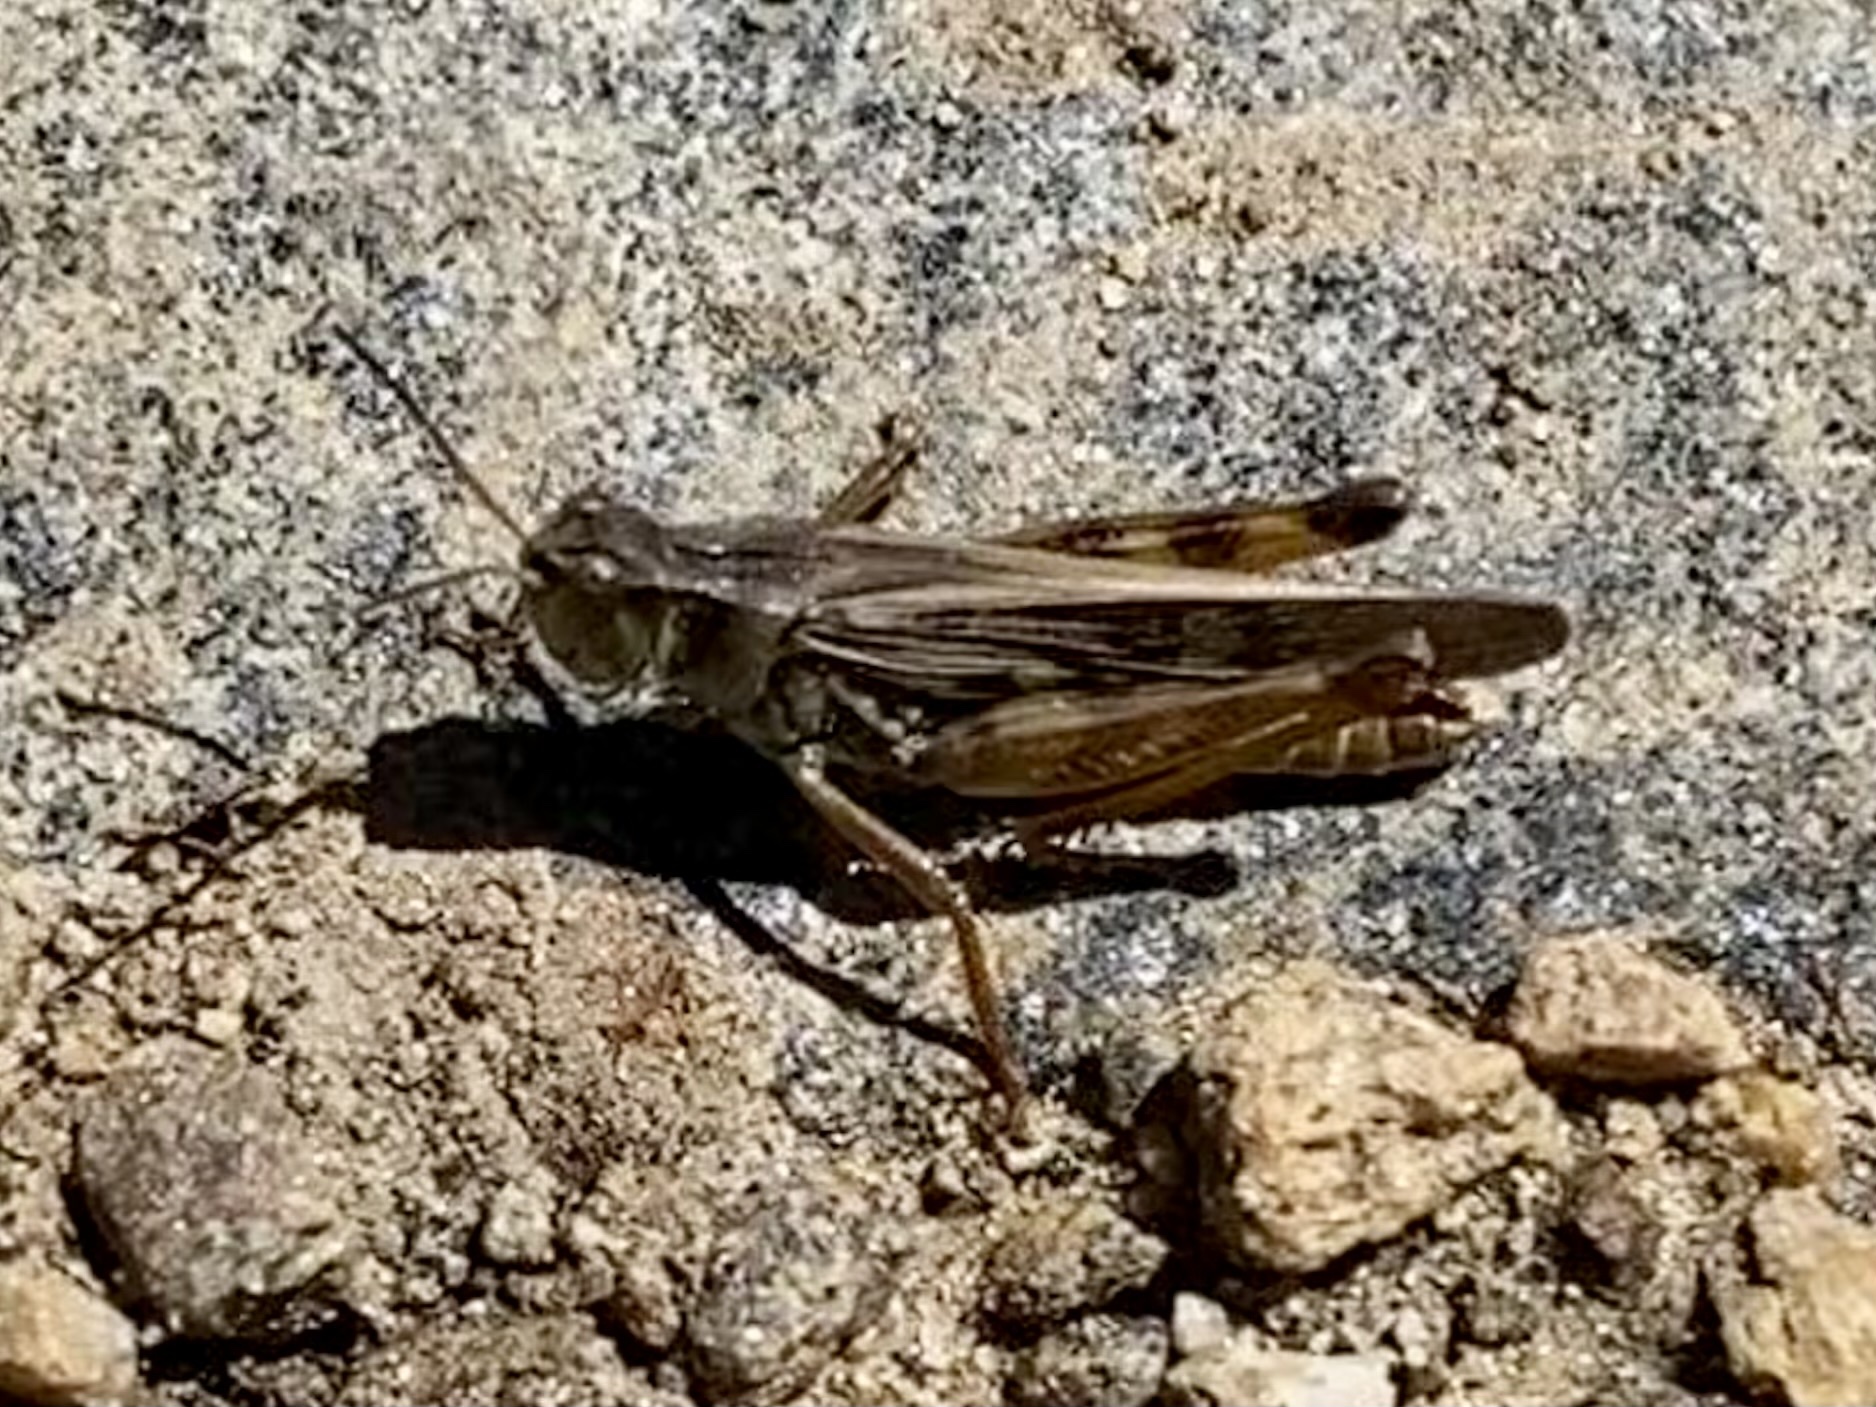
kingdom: Animalia
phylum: Arthropoda
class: Insecta
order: Orthoptera
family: Acrididae
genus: Camnula
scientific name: Camnula pellucida
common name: Clear-winged grasshopper
